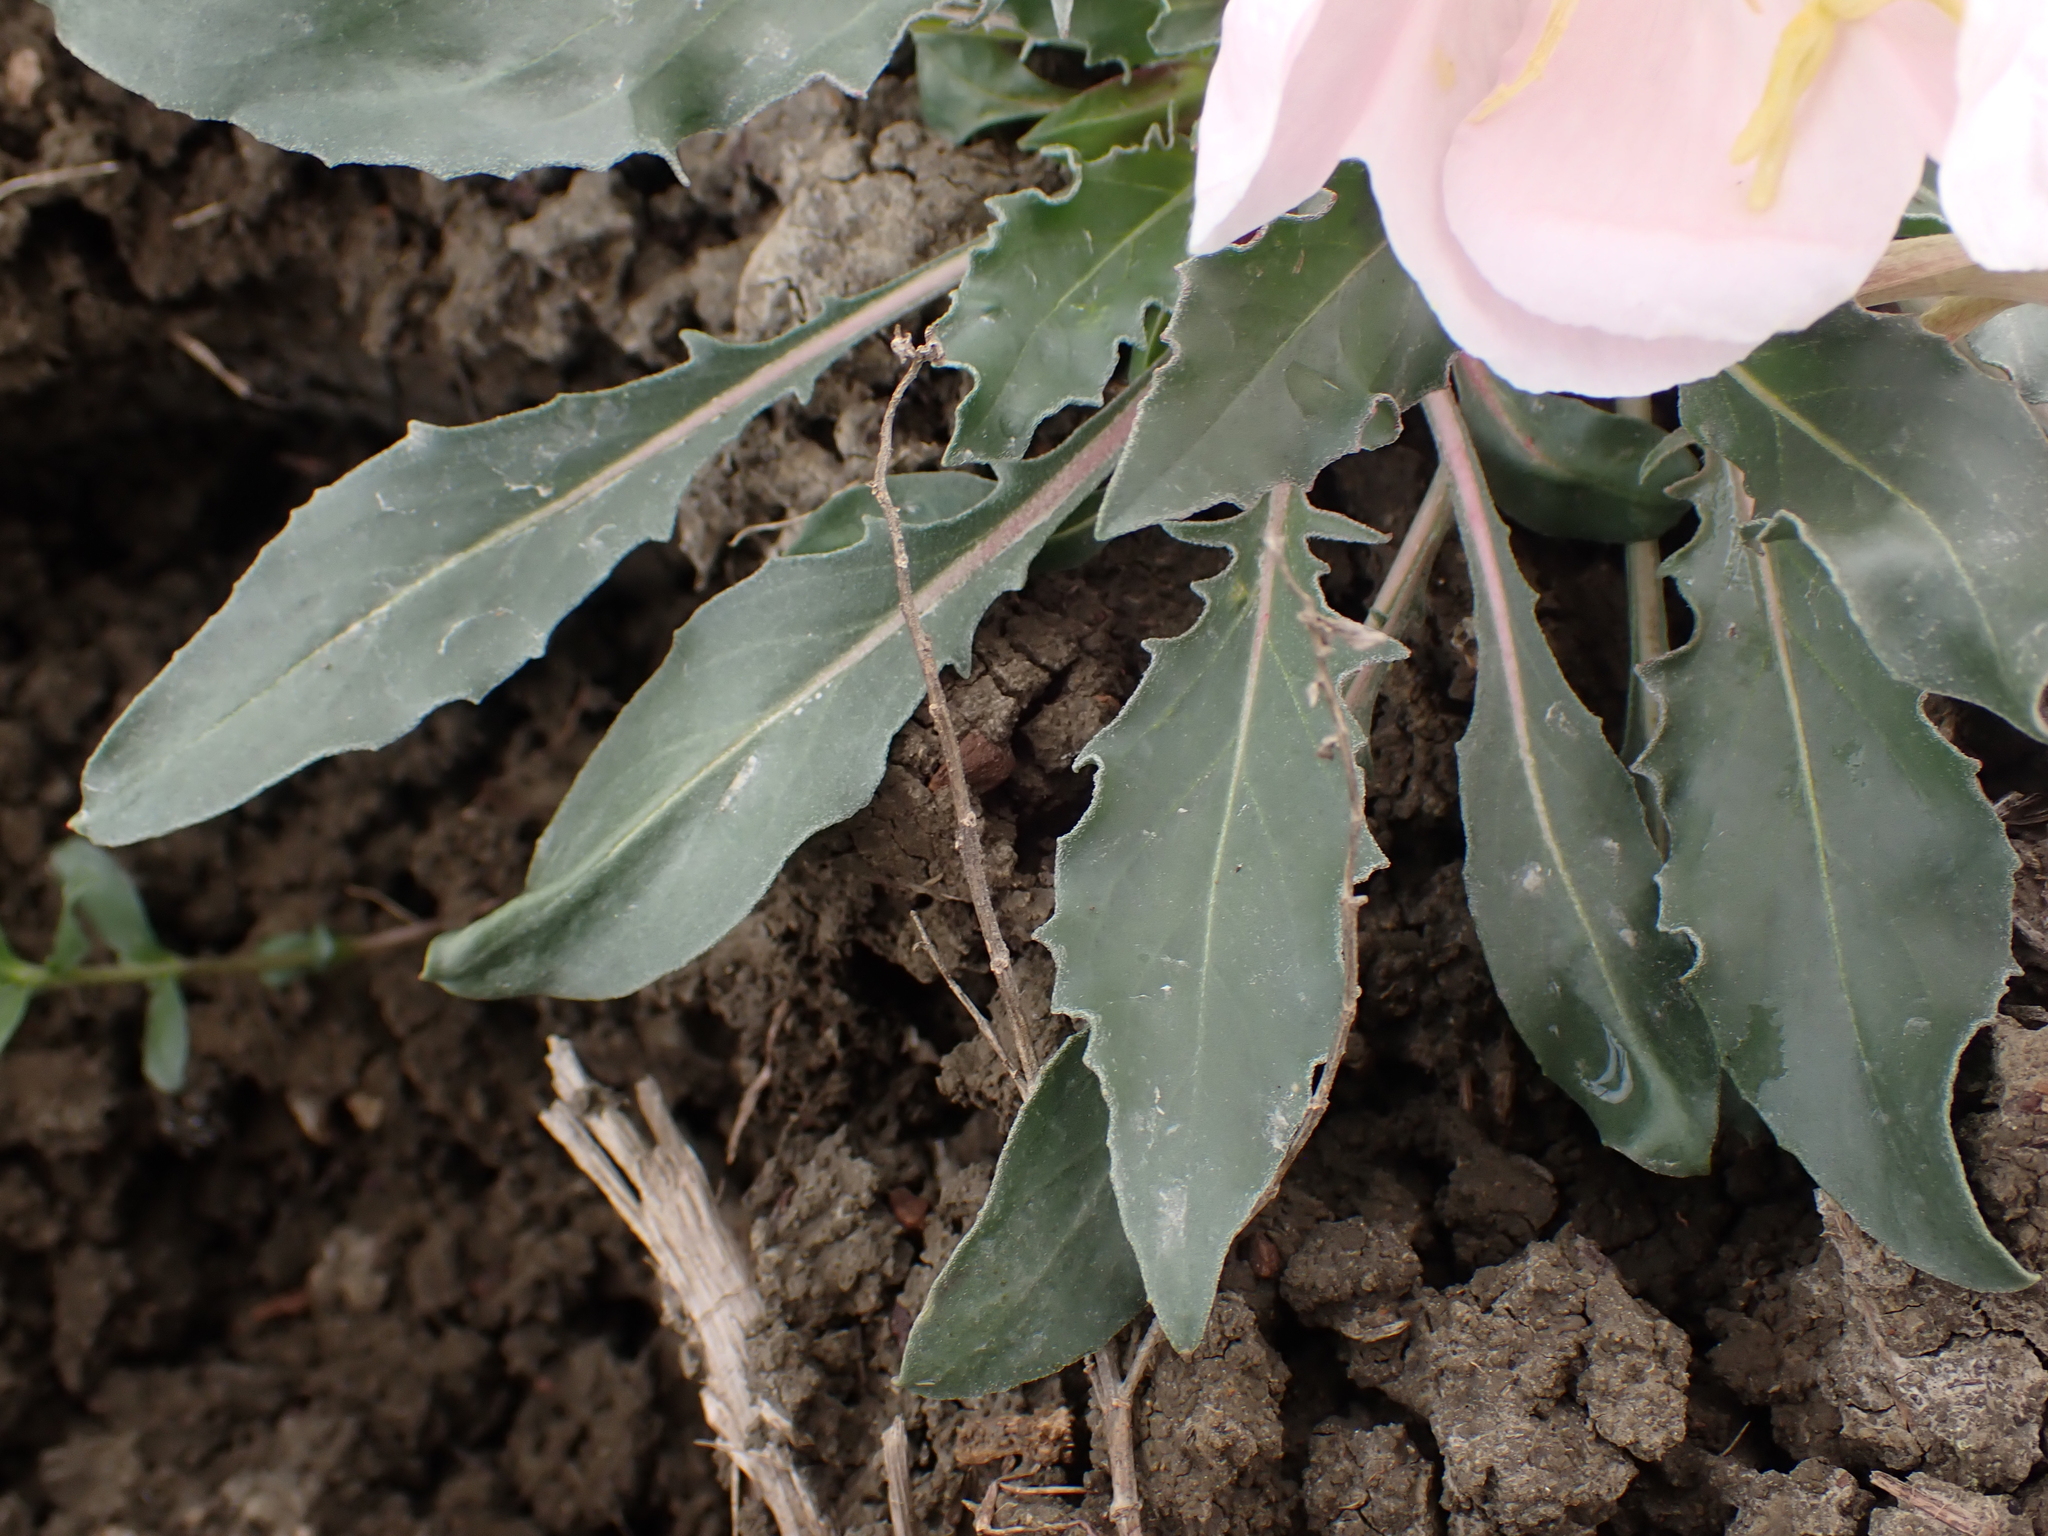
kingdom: Plantae
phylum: Tracheophyta
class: Magnoliopsida
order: Myrtales
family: Onagraceae
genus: Oenothera
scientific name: Oenothera cespitosa
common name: Tufted evening-primrose
